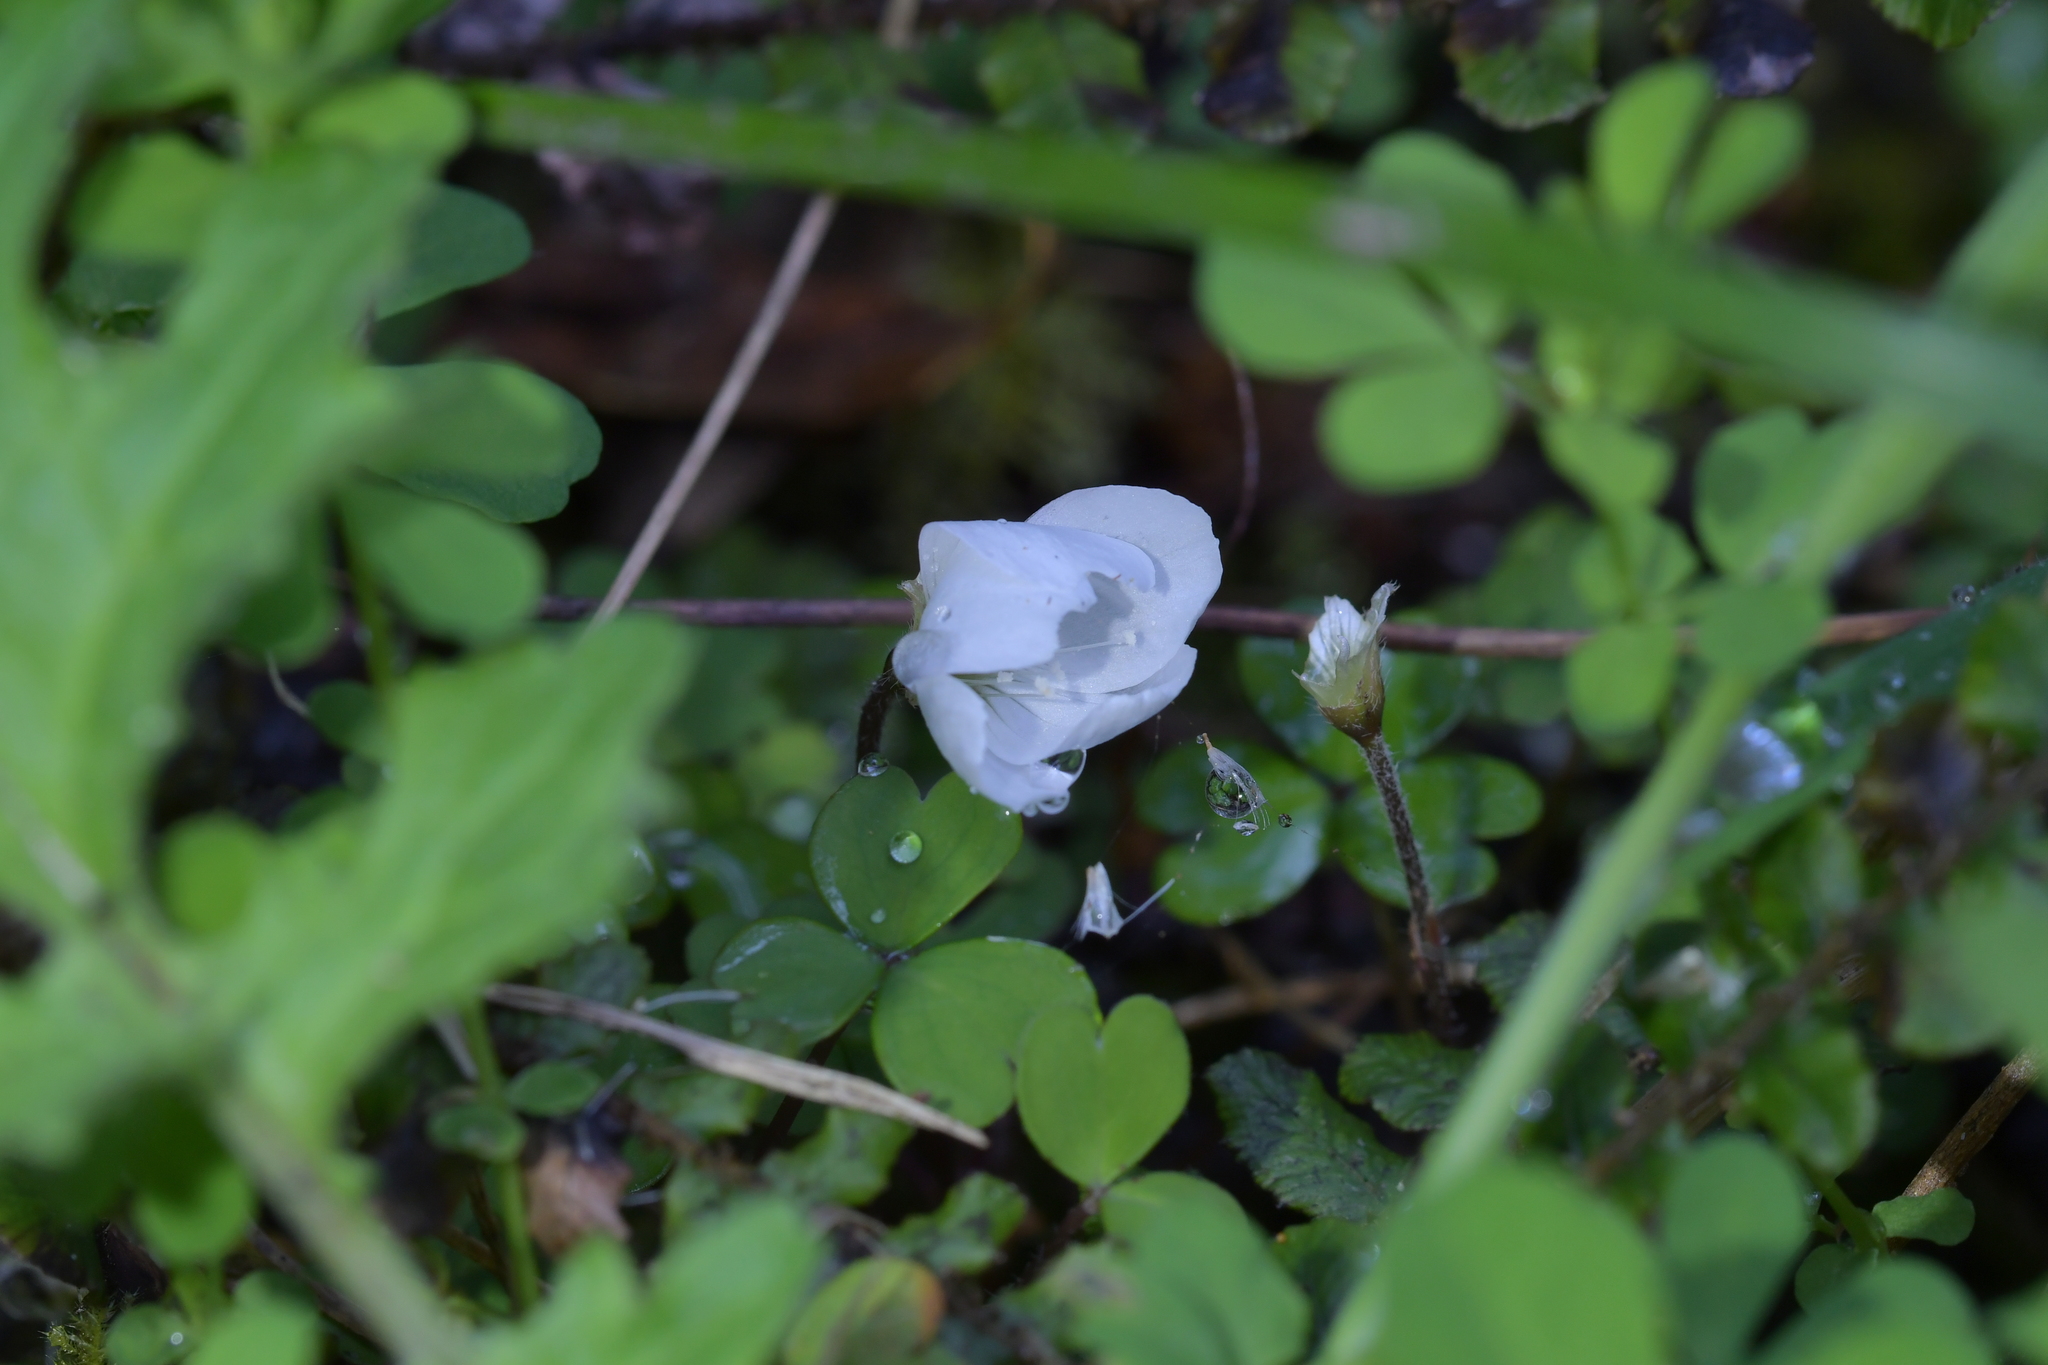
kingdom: Plantae
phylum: Tracheophyta
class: Magnoliopsida
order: Oxalidales
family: Oxalidaceae
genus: Oxalis
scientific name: Oxalis magellanica
